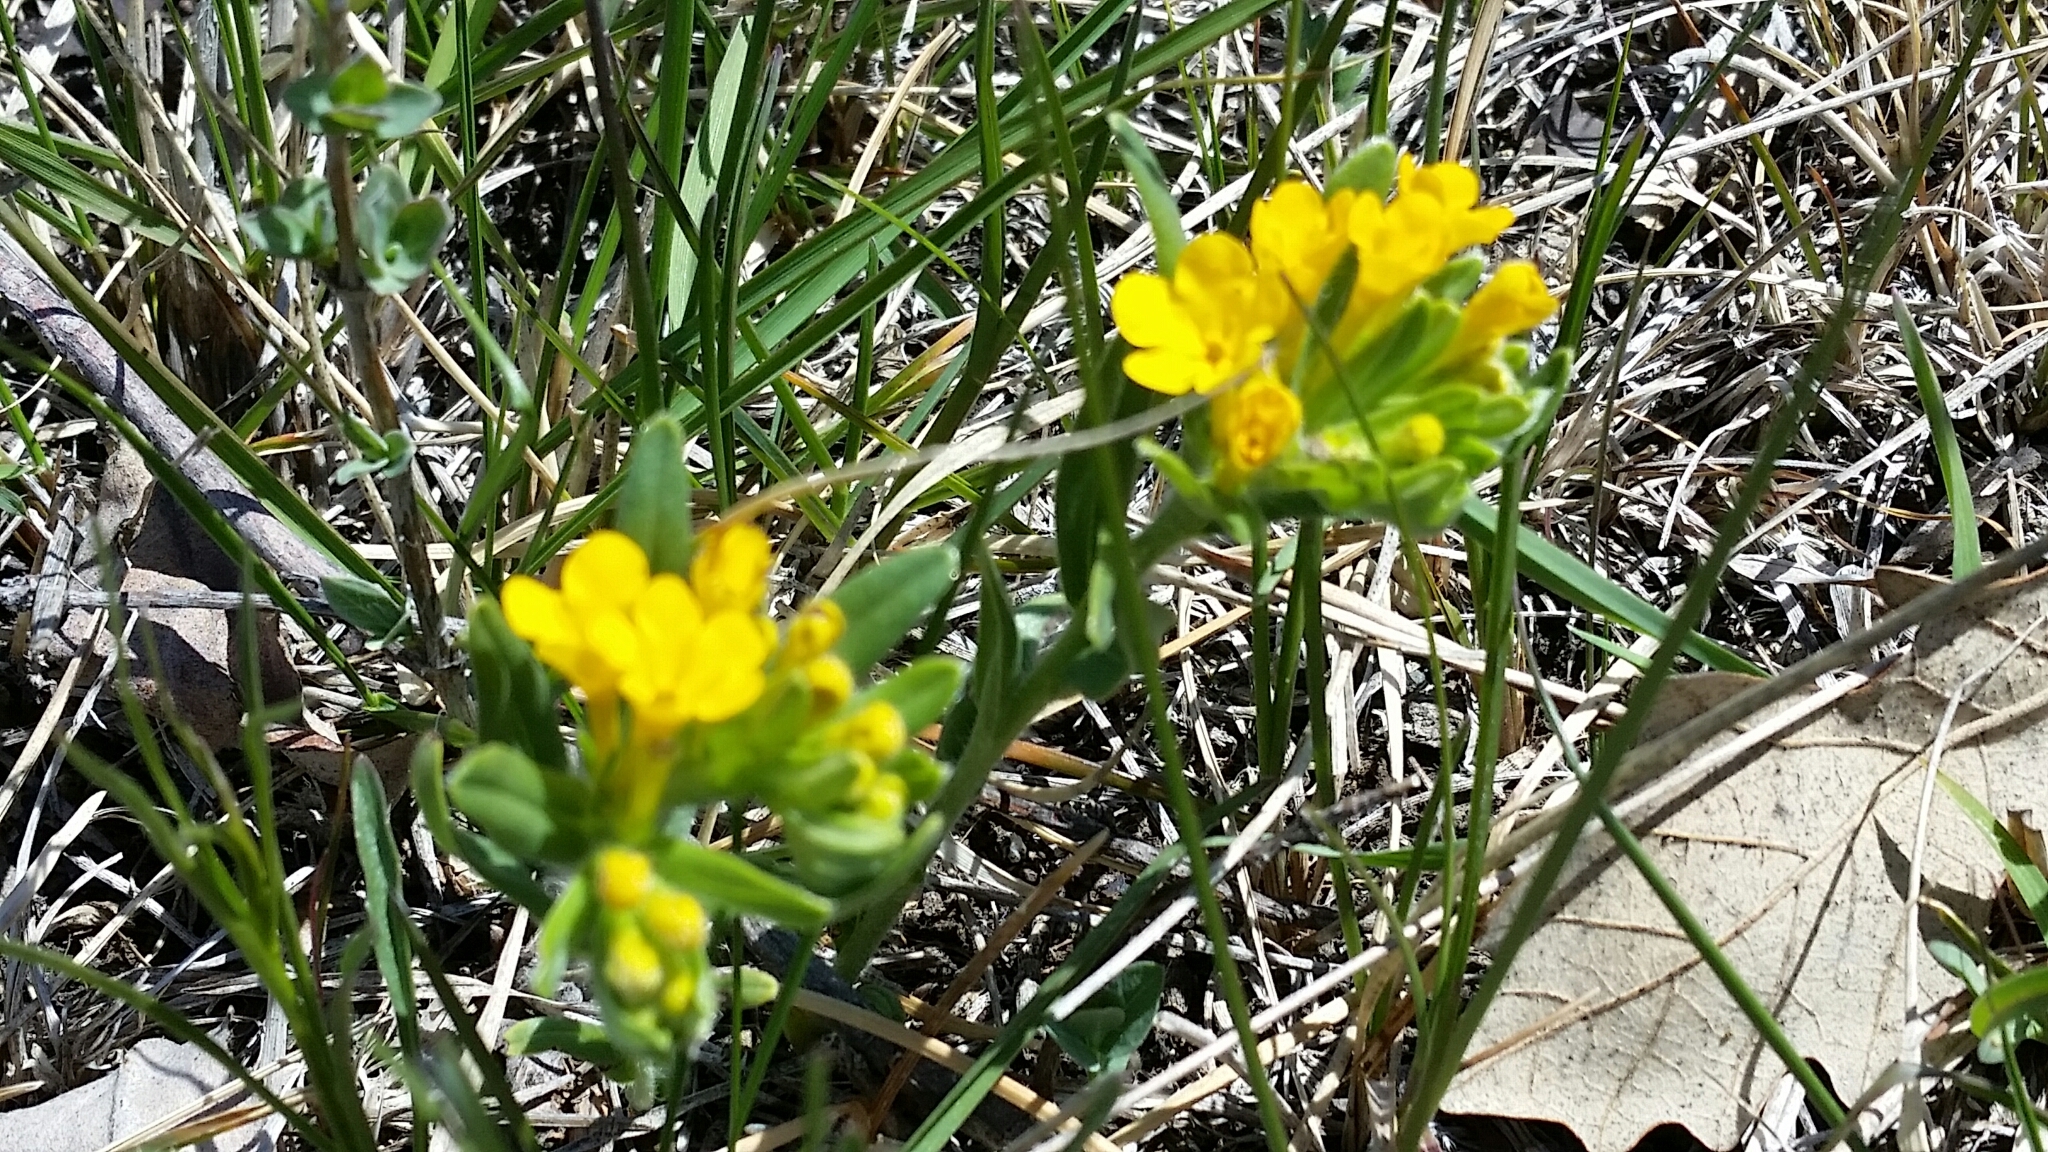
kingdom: Plantae
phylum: Tracheophyta
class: Magnoliopsida
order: Boraginales
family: Boraginaceae
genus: Lithospermum
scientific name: Lithospermum canescens
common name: Hoary puccoon
